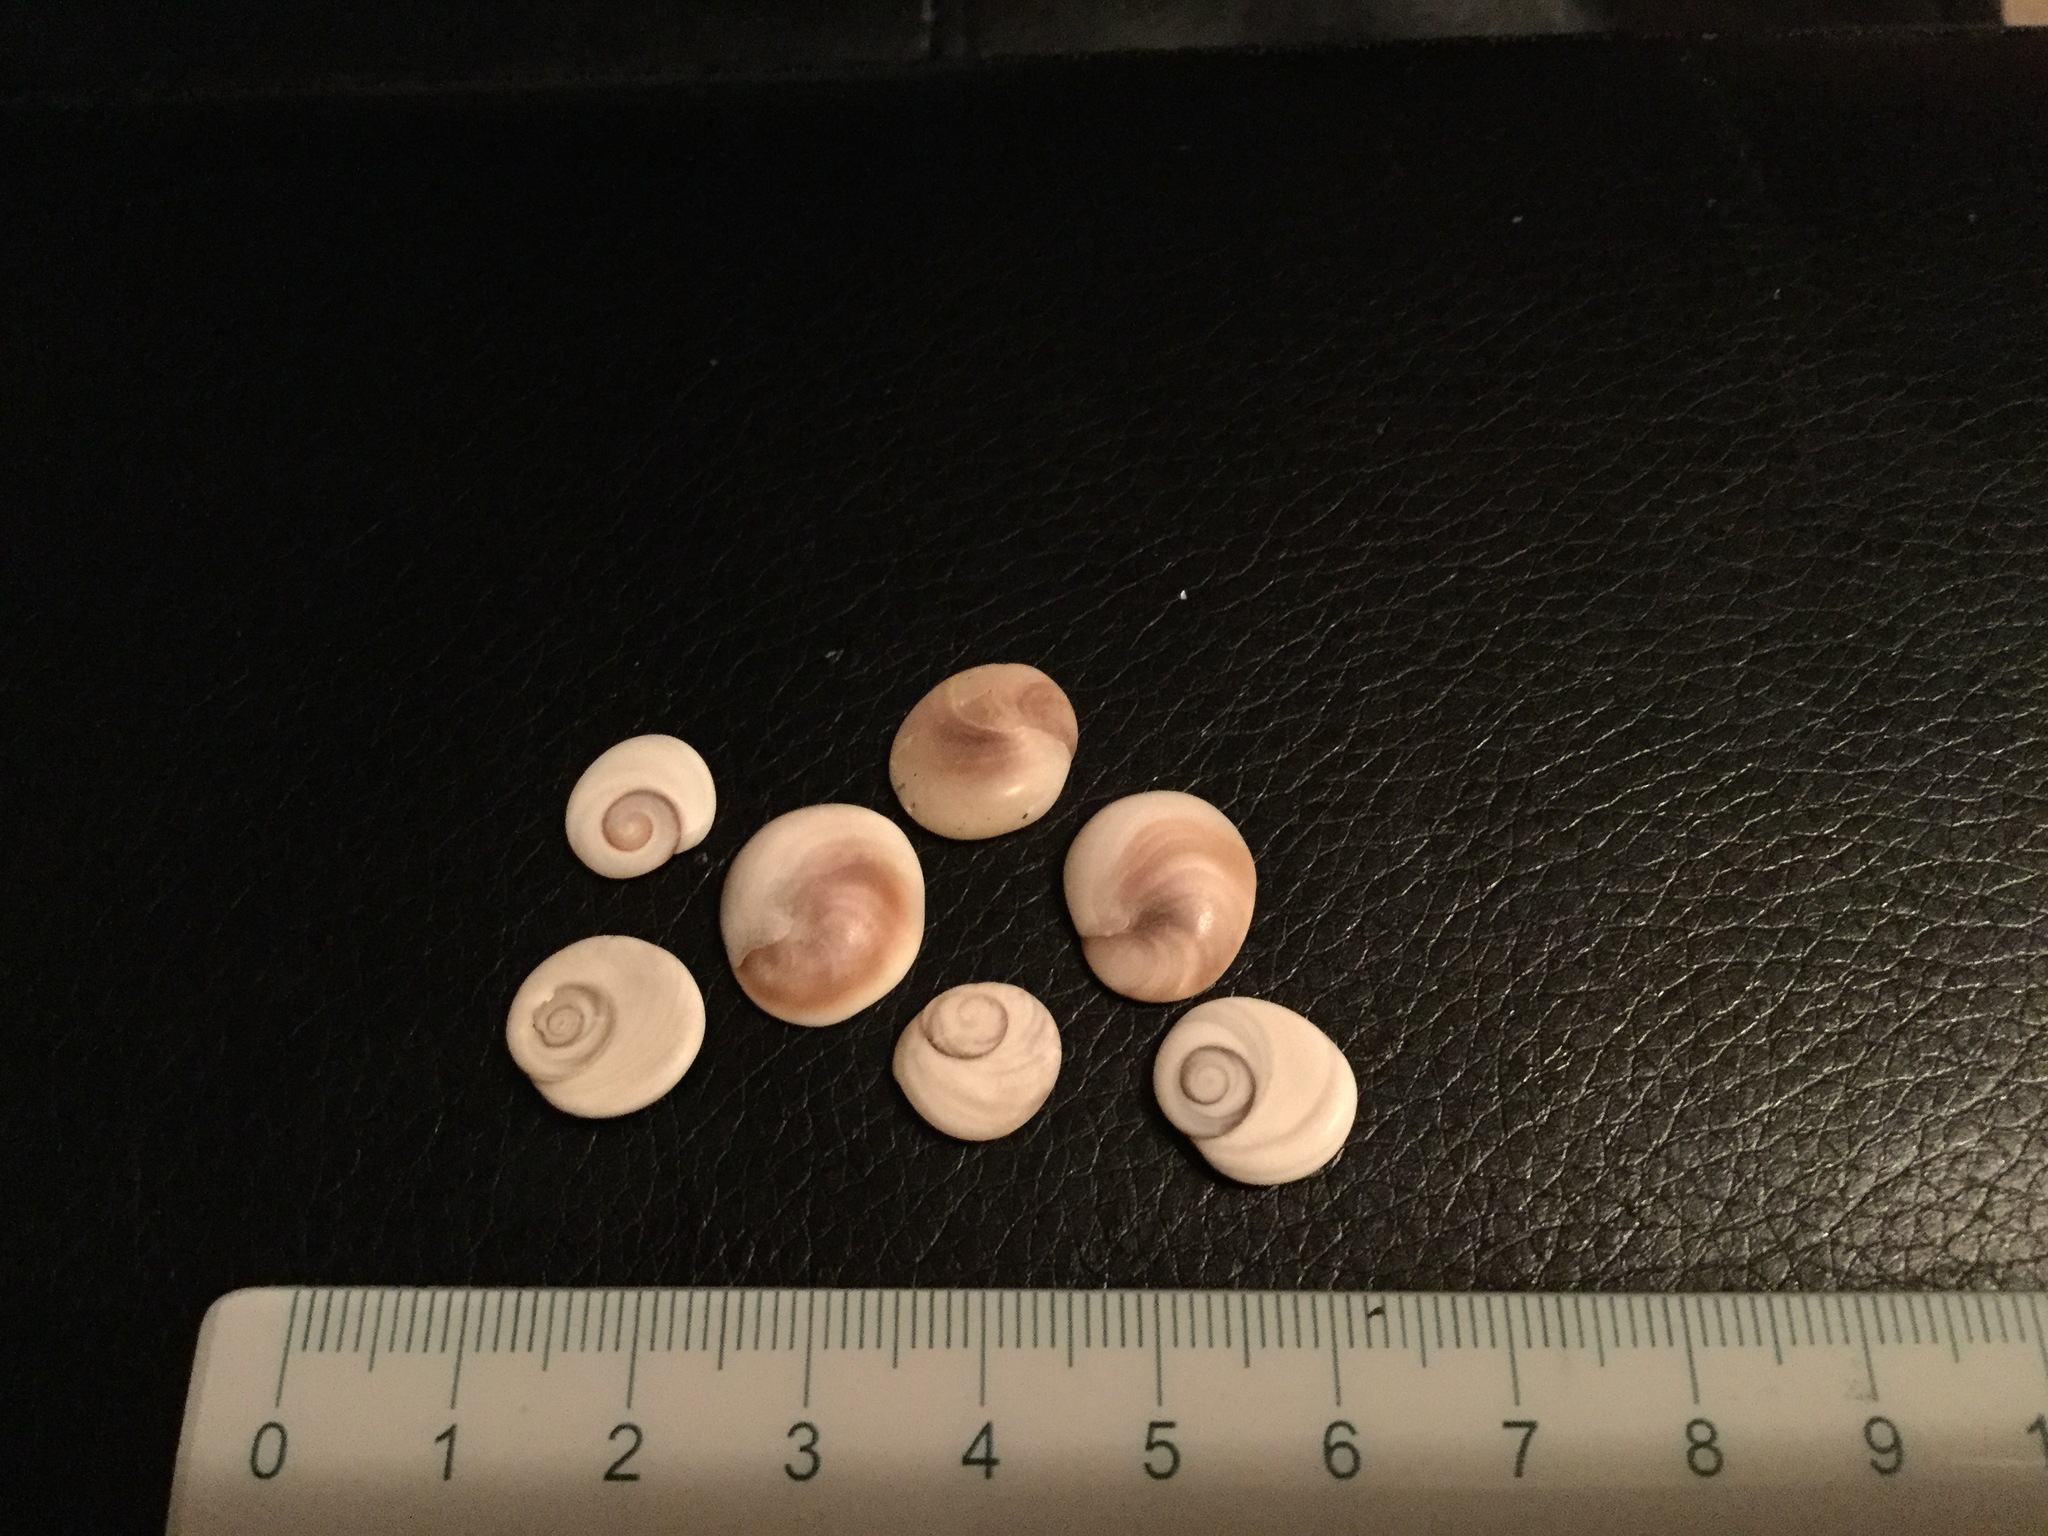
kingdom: Animalia
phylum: Mollusca
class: Gastropoda
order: Trochida
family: Turbinidae
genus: Lunella
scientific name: Lunella smaragda
